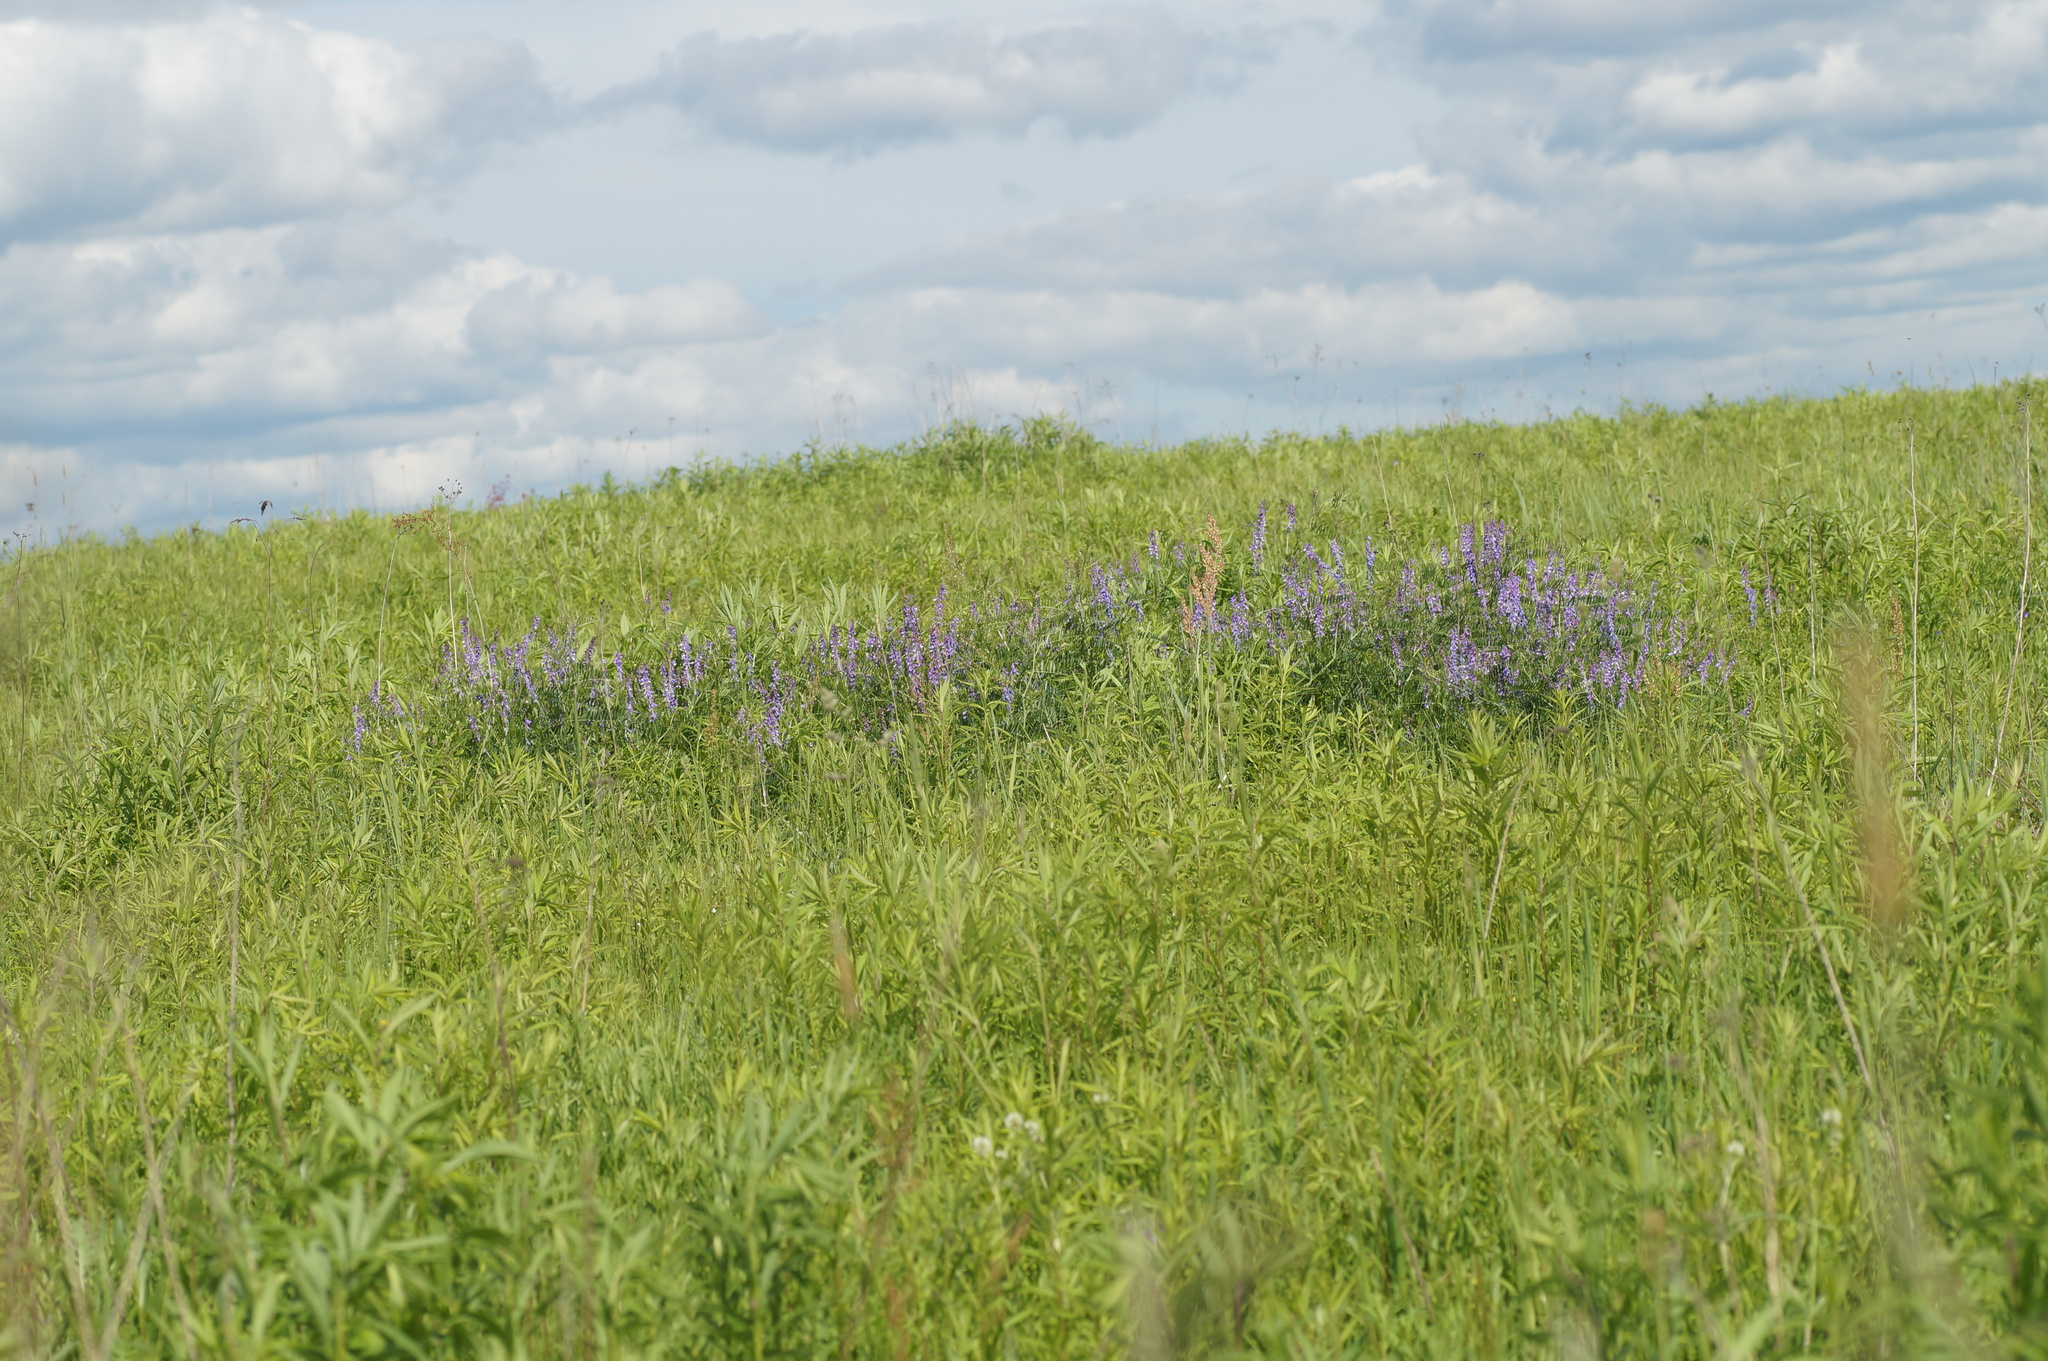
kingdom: Plantae
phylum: Tracheophyta
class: Magnoliopsida
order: Fabales
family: Fabaceae
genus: Vicia
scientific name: Vicia tenuifolia
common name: Fine-leaved vetch
